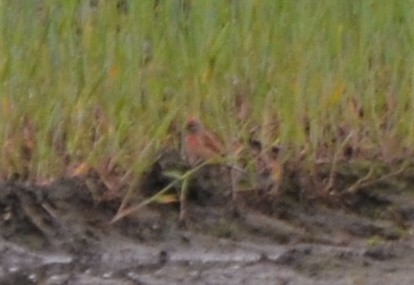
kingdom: Animalia
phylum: Chordata
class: Aves
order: Passeriformes
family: Fringillidae
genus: Linaria
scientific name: Linaria cannabina
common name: Common linnet
